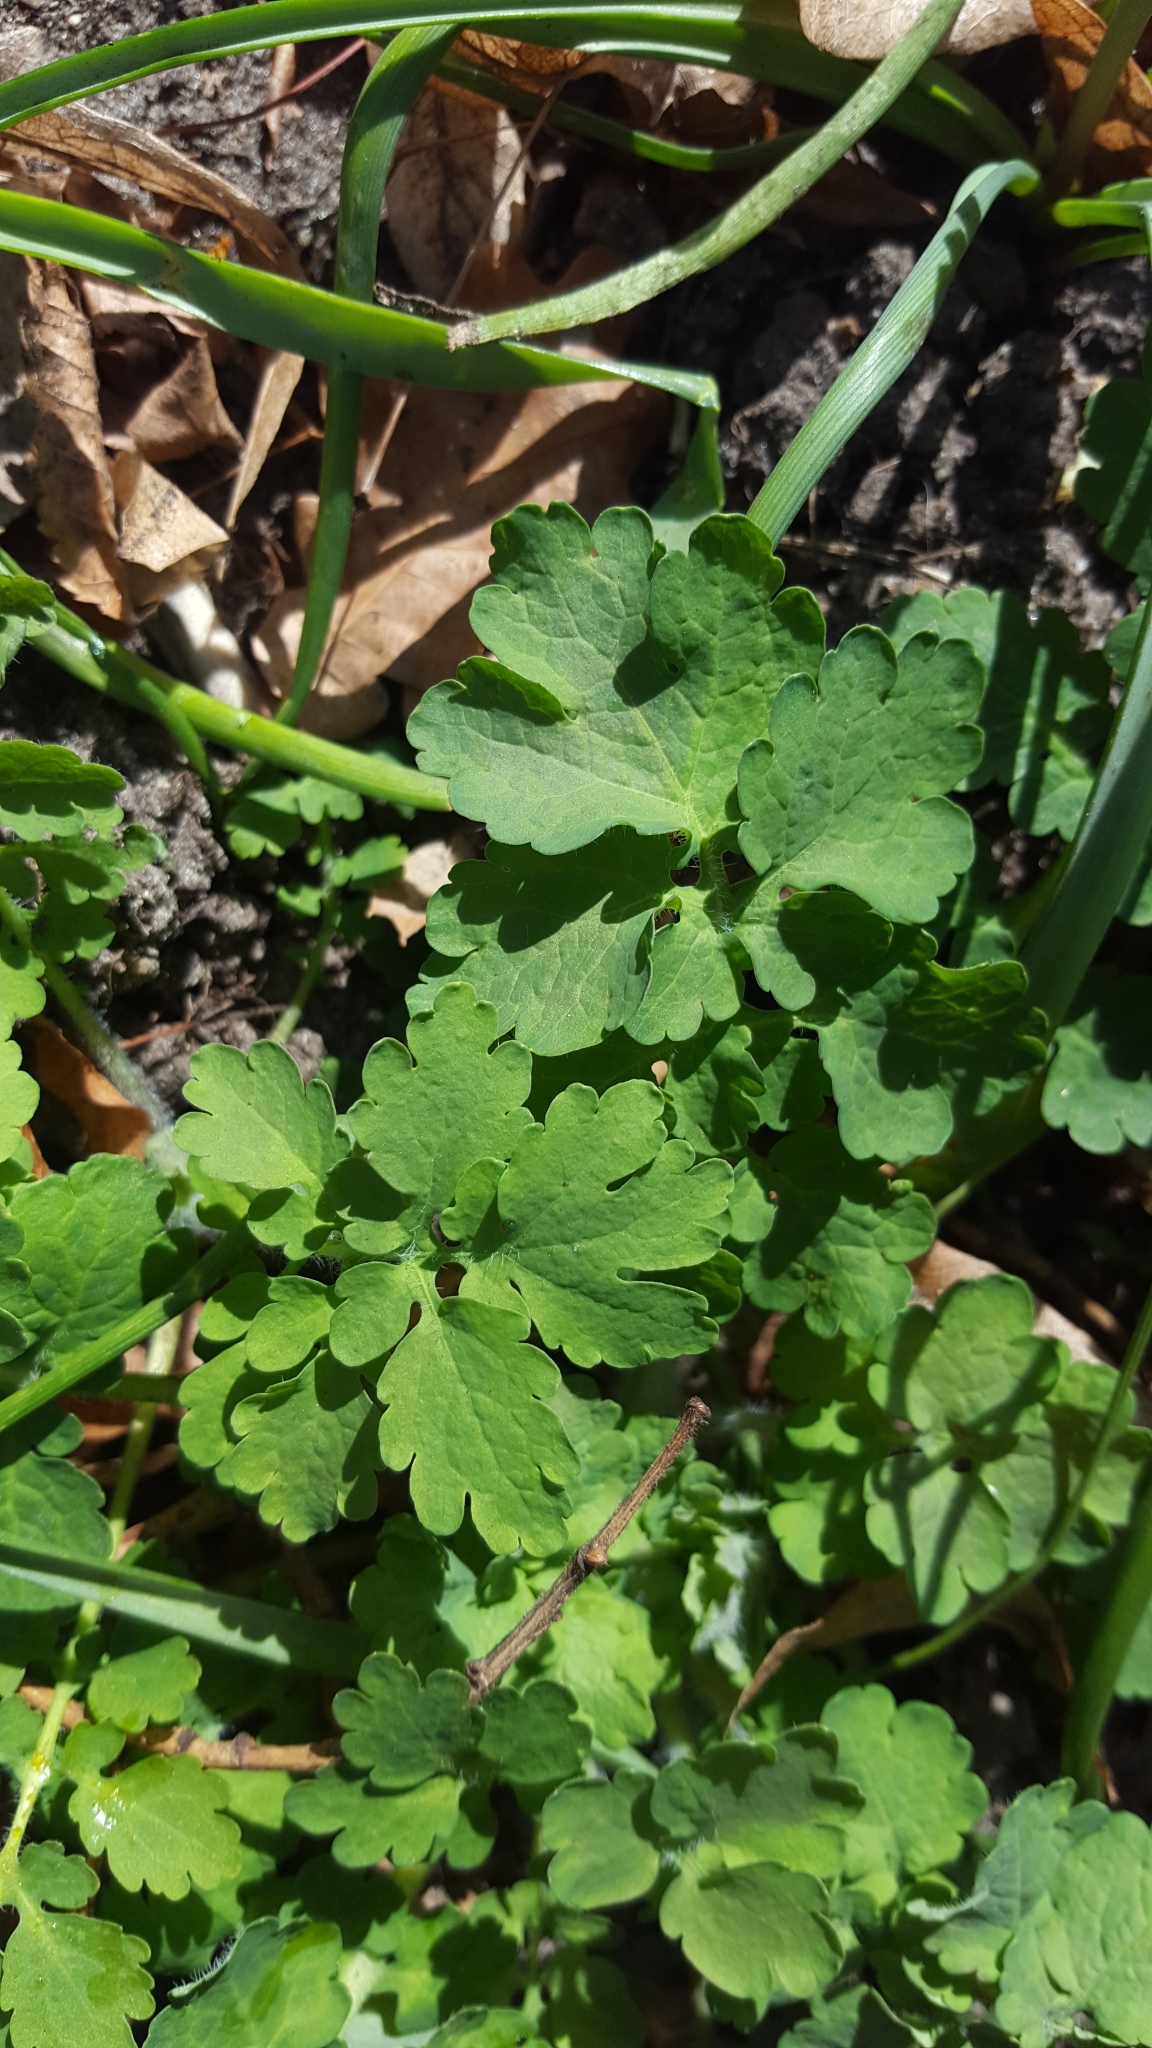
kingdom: Plantae
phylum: Tracheophyta
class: Magnoliopsida
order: Ranunculales
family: Papaveraceae
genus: Chelidonium
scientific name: Chelidonium majus
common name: Greater celandine
